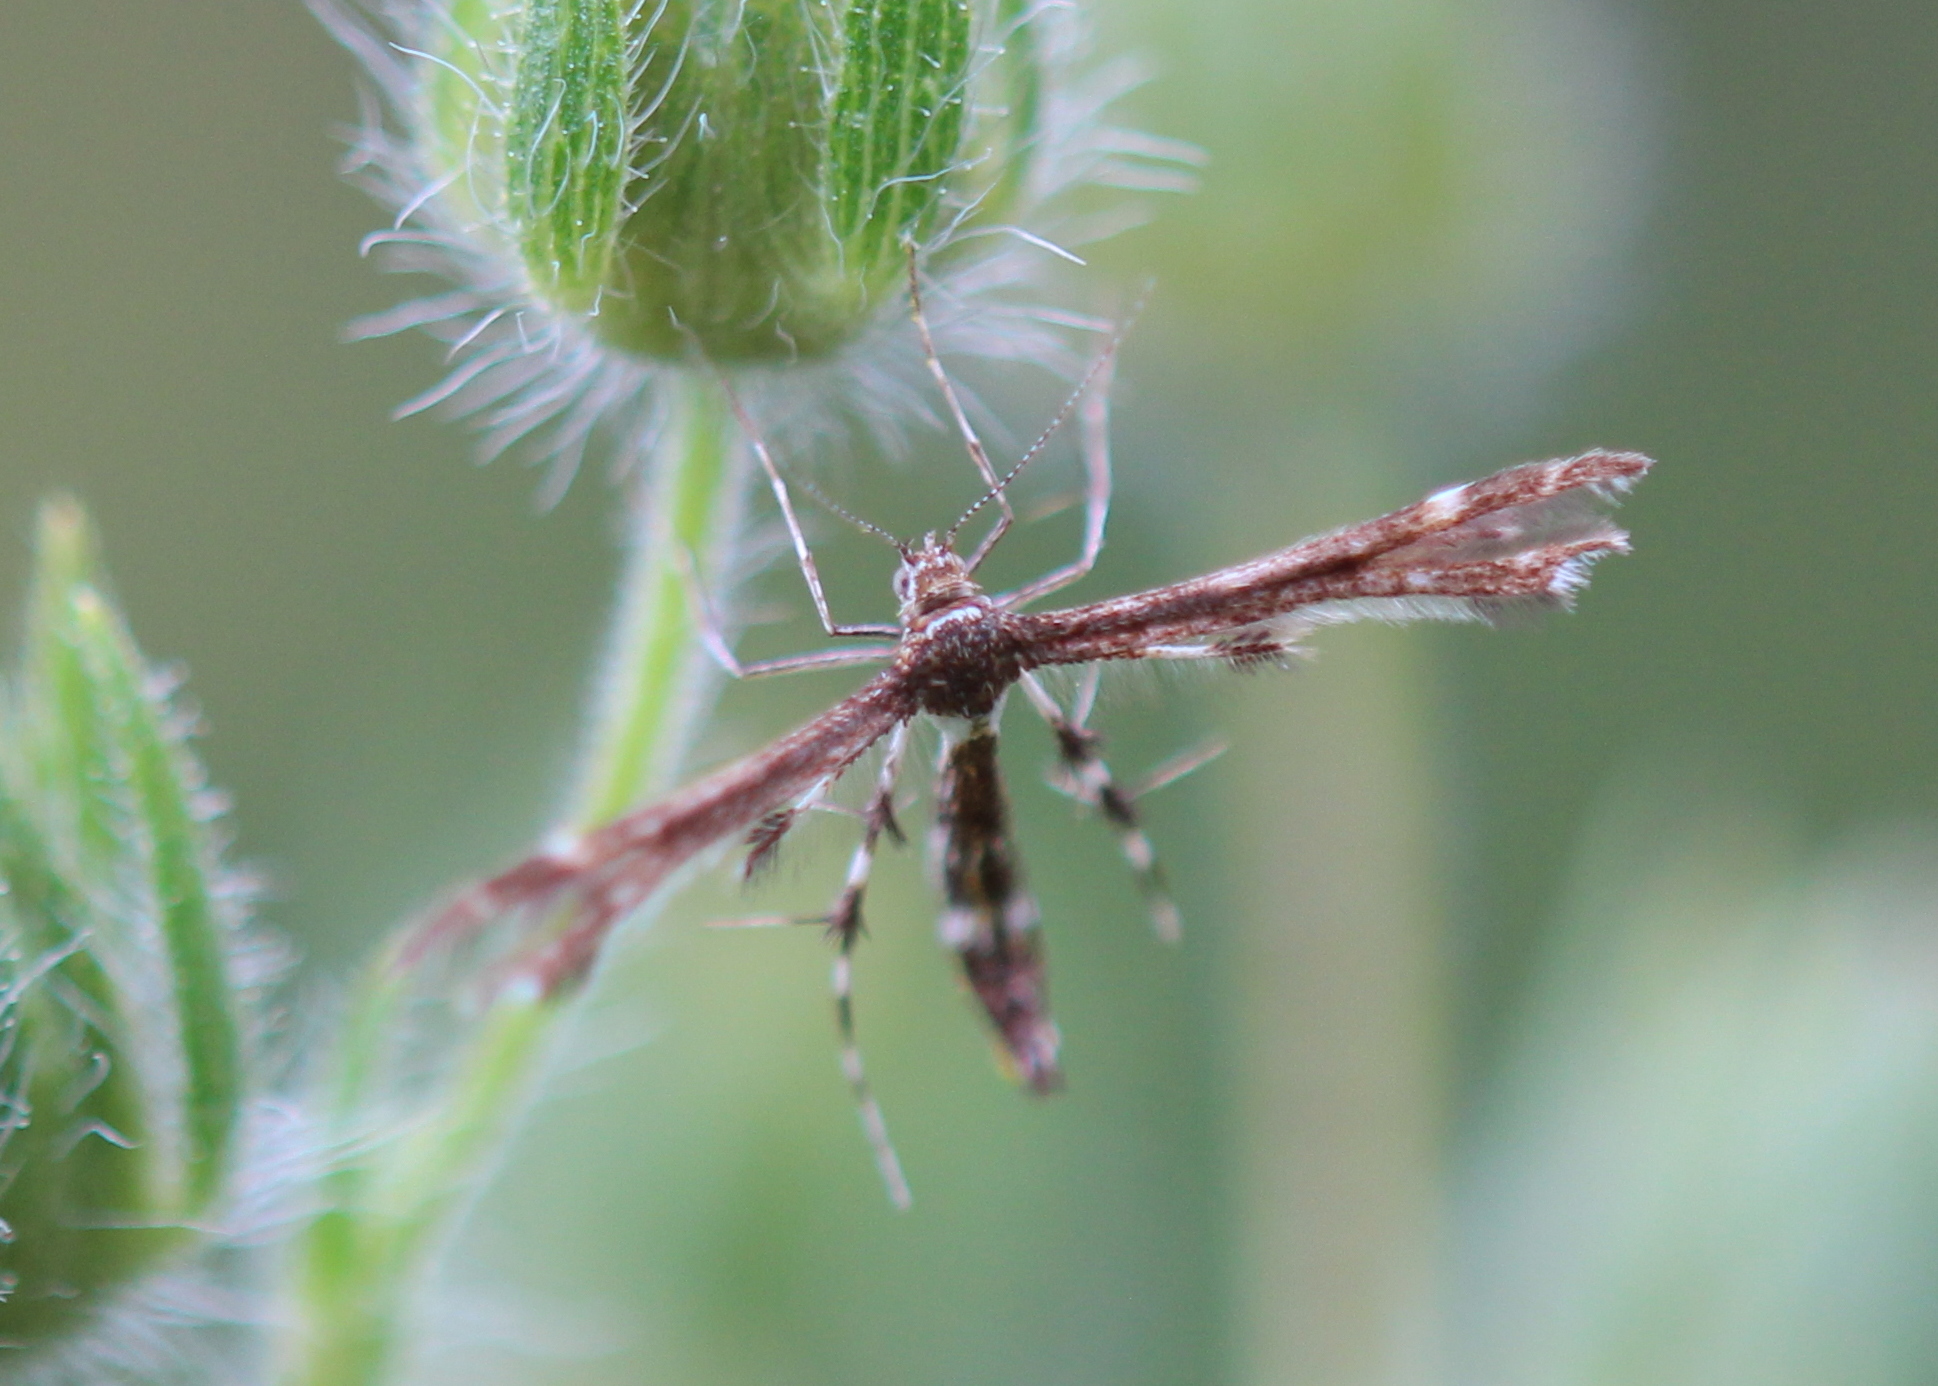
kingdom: Animalia
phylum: Arthropoda
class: Insecta
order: Lepidoptera
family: Pterophoridae
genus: Geina
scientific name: Geina
